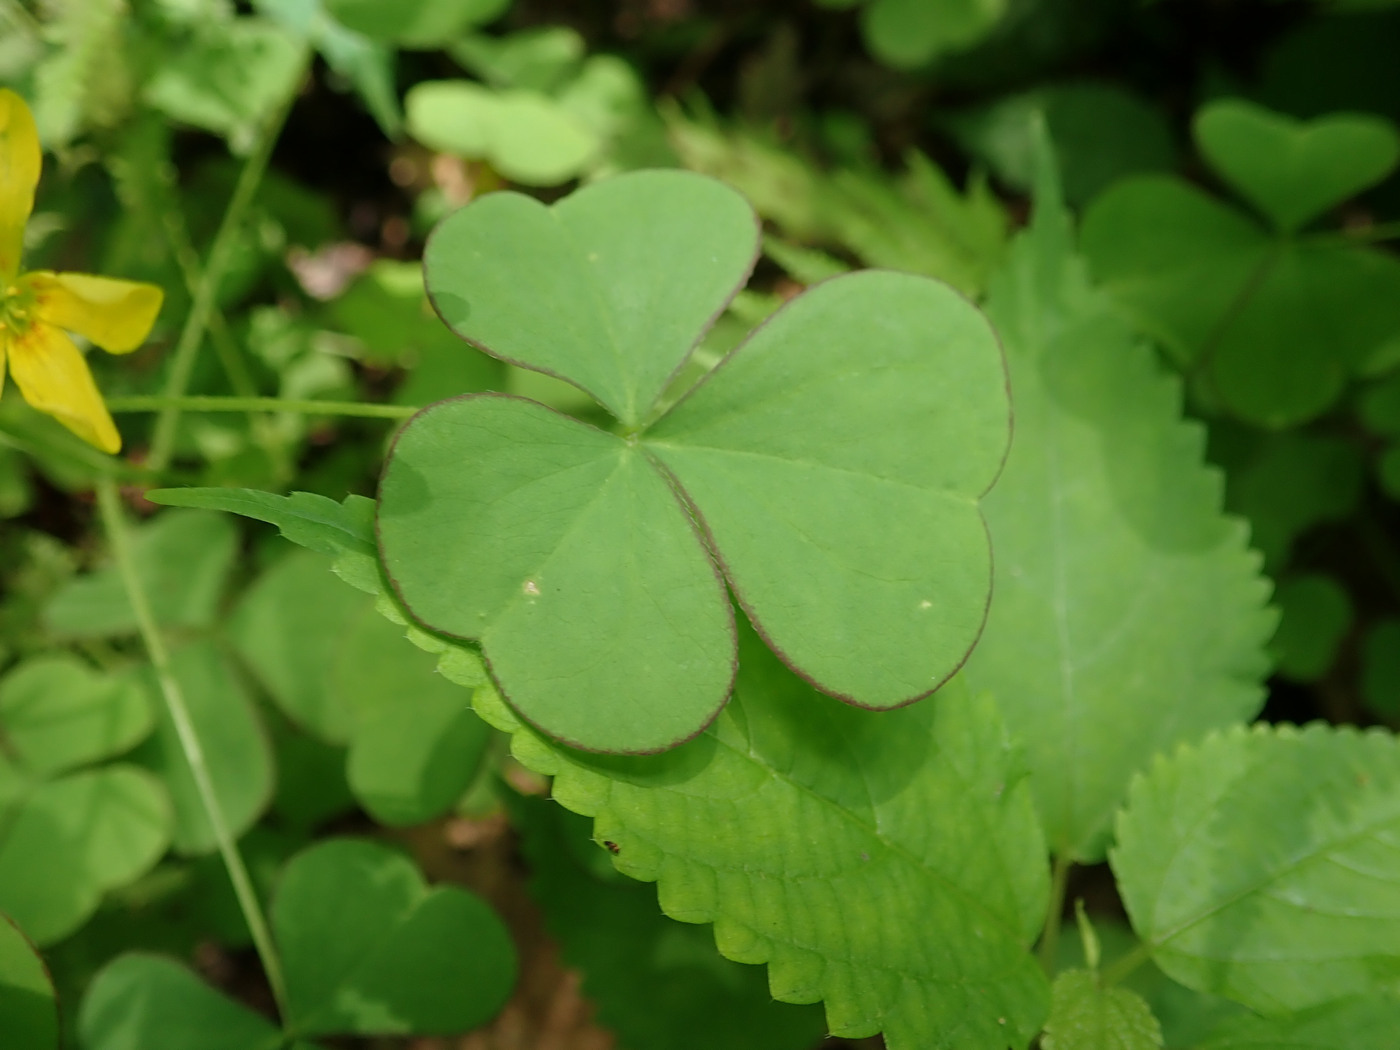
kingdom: Plantae
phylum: Tracheophyta
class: Magnoliopsida
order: Oxalidales
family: Oxalidaceae
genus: Oxalis
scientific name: Oxalis grandis
